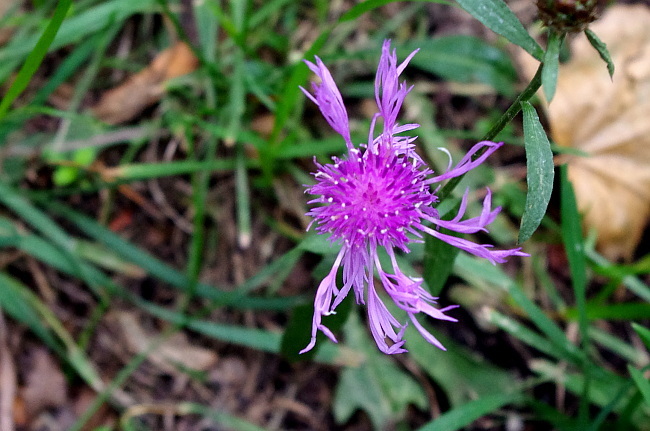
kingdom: Plantae
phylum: Tracheophyta
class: Magnoliopsida
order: Asterales
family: Asteraceae
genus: Centaurea
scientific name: Centaurea jacea
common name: Brown knapweed
